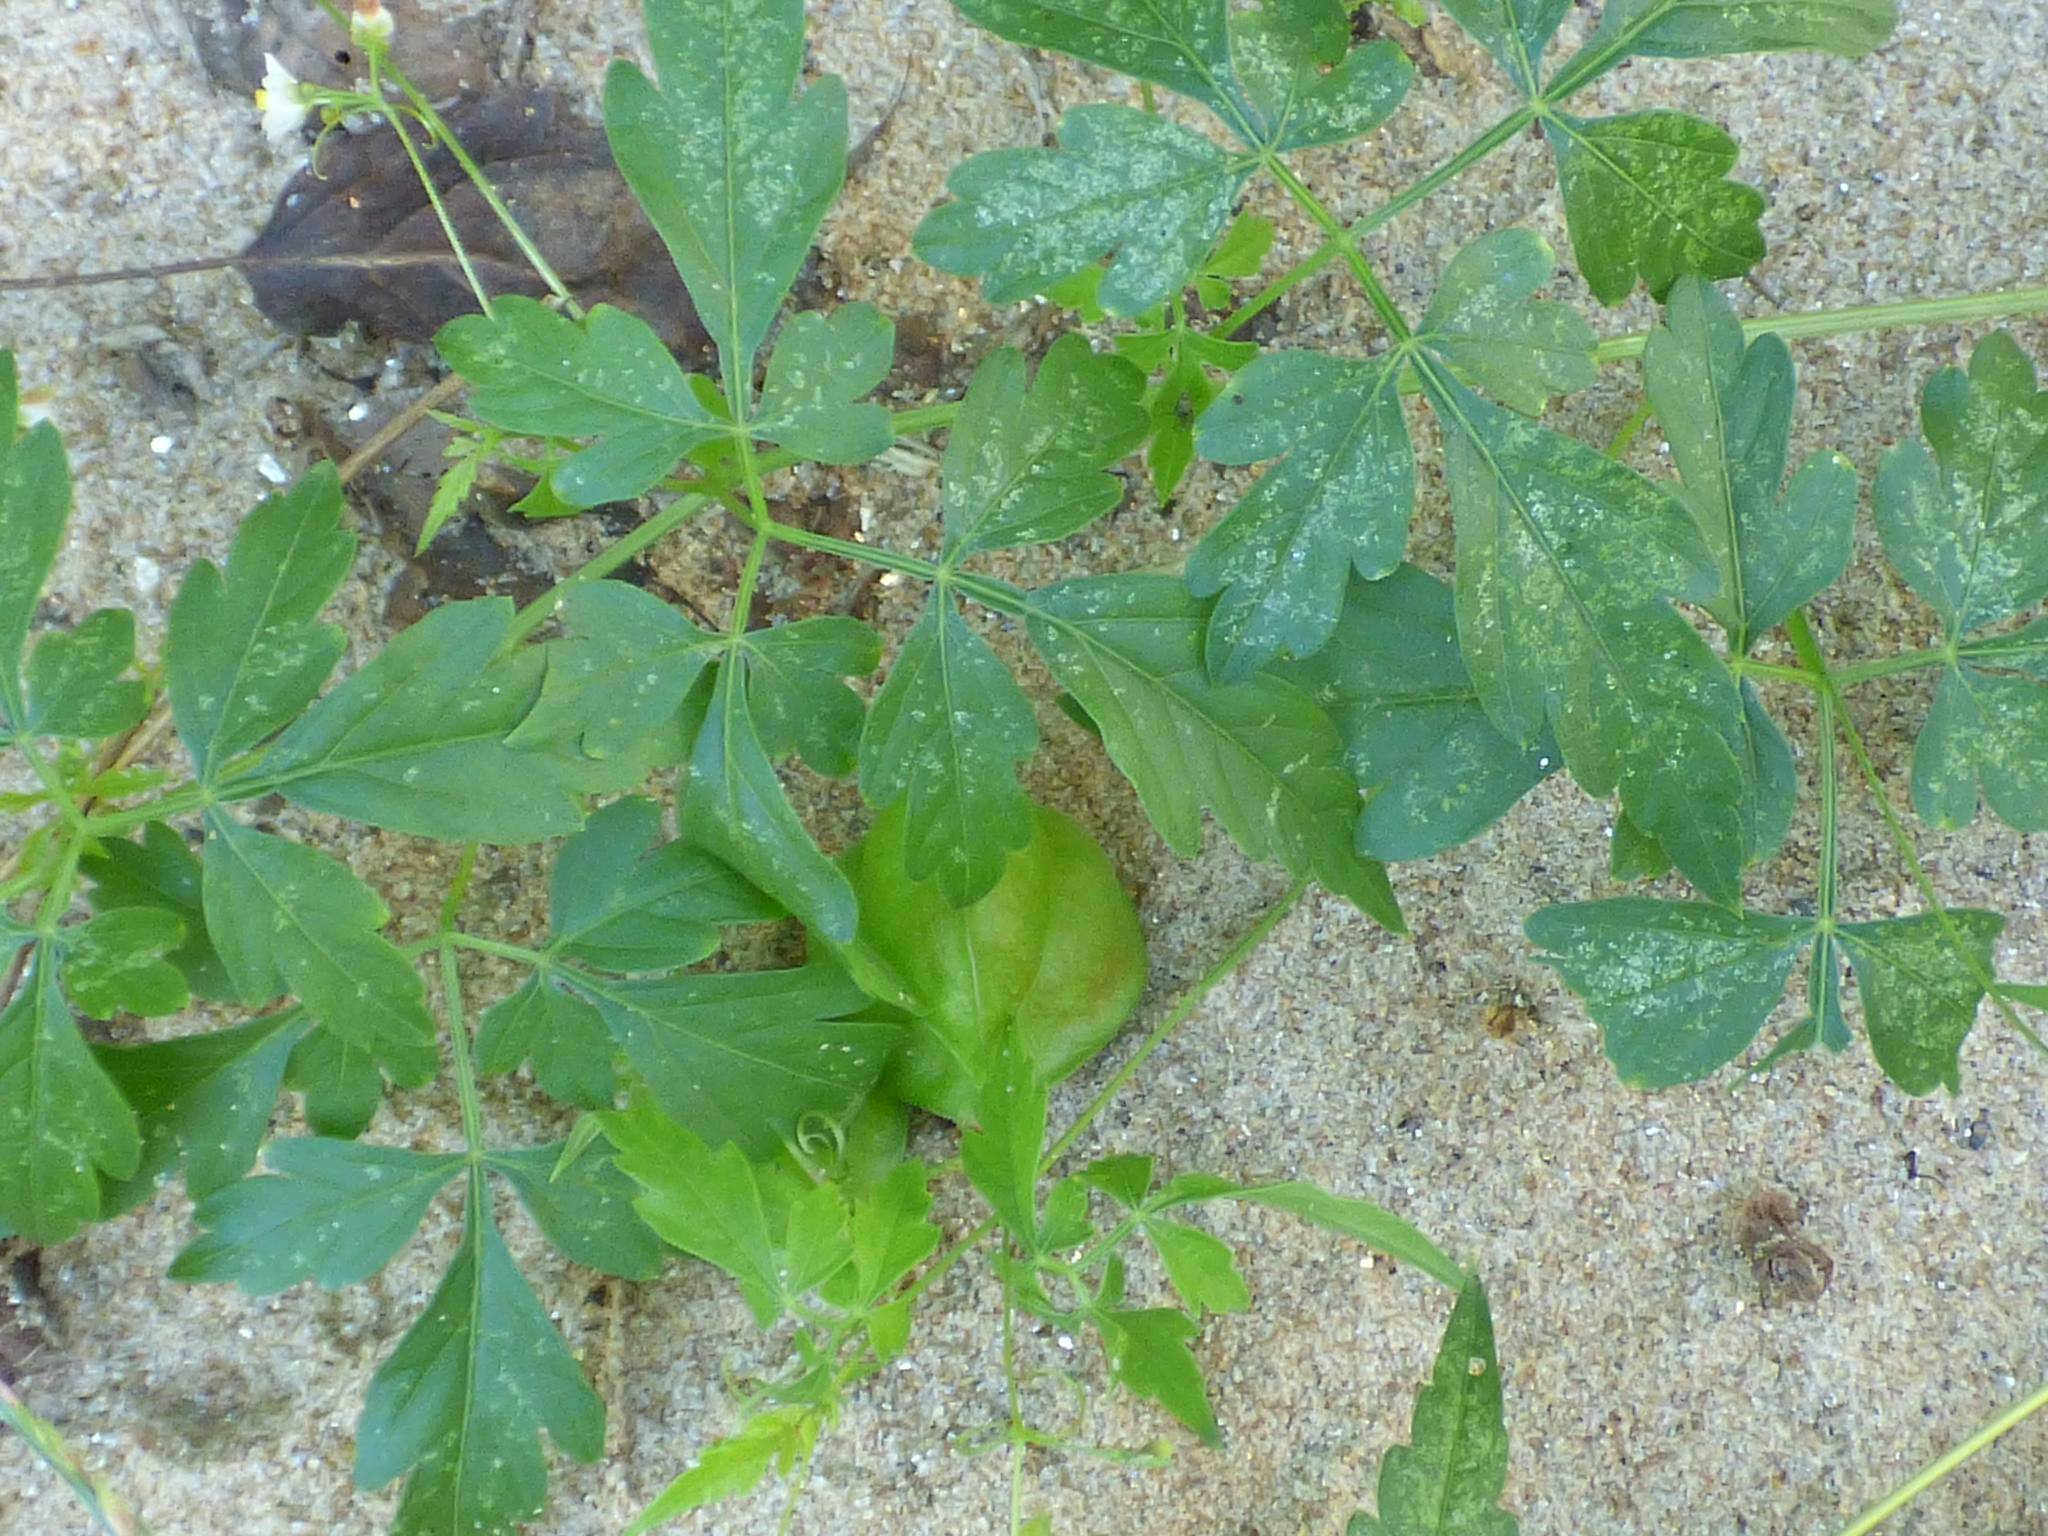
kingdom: Plantae
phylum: Tracheophyta
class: Magnoliopsida
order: Sapindales
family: Sapindaceae
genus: Cardiospermum
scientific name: Cardiospermum halicacabum
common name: Balloon vine
